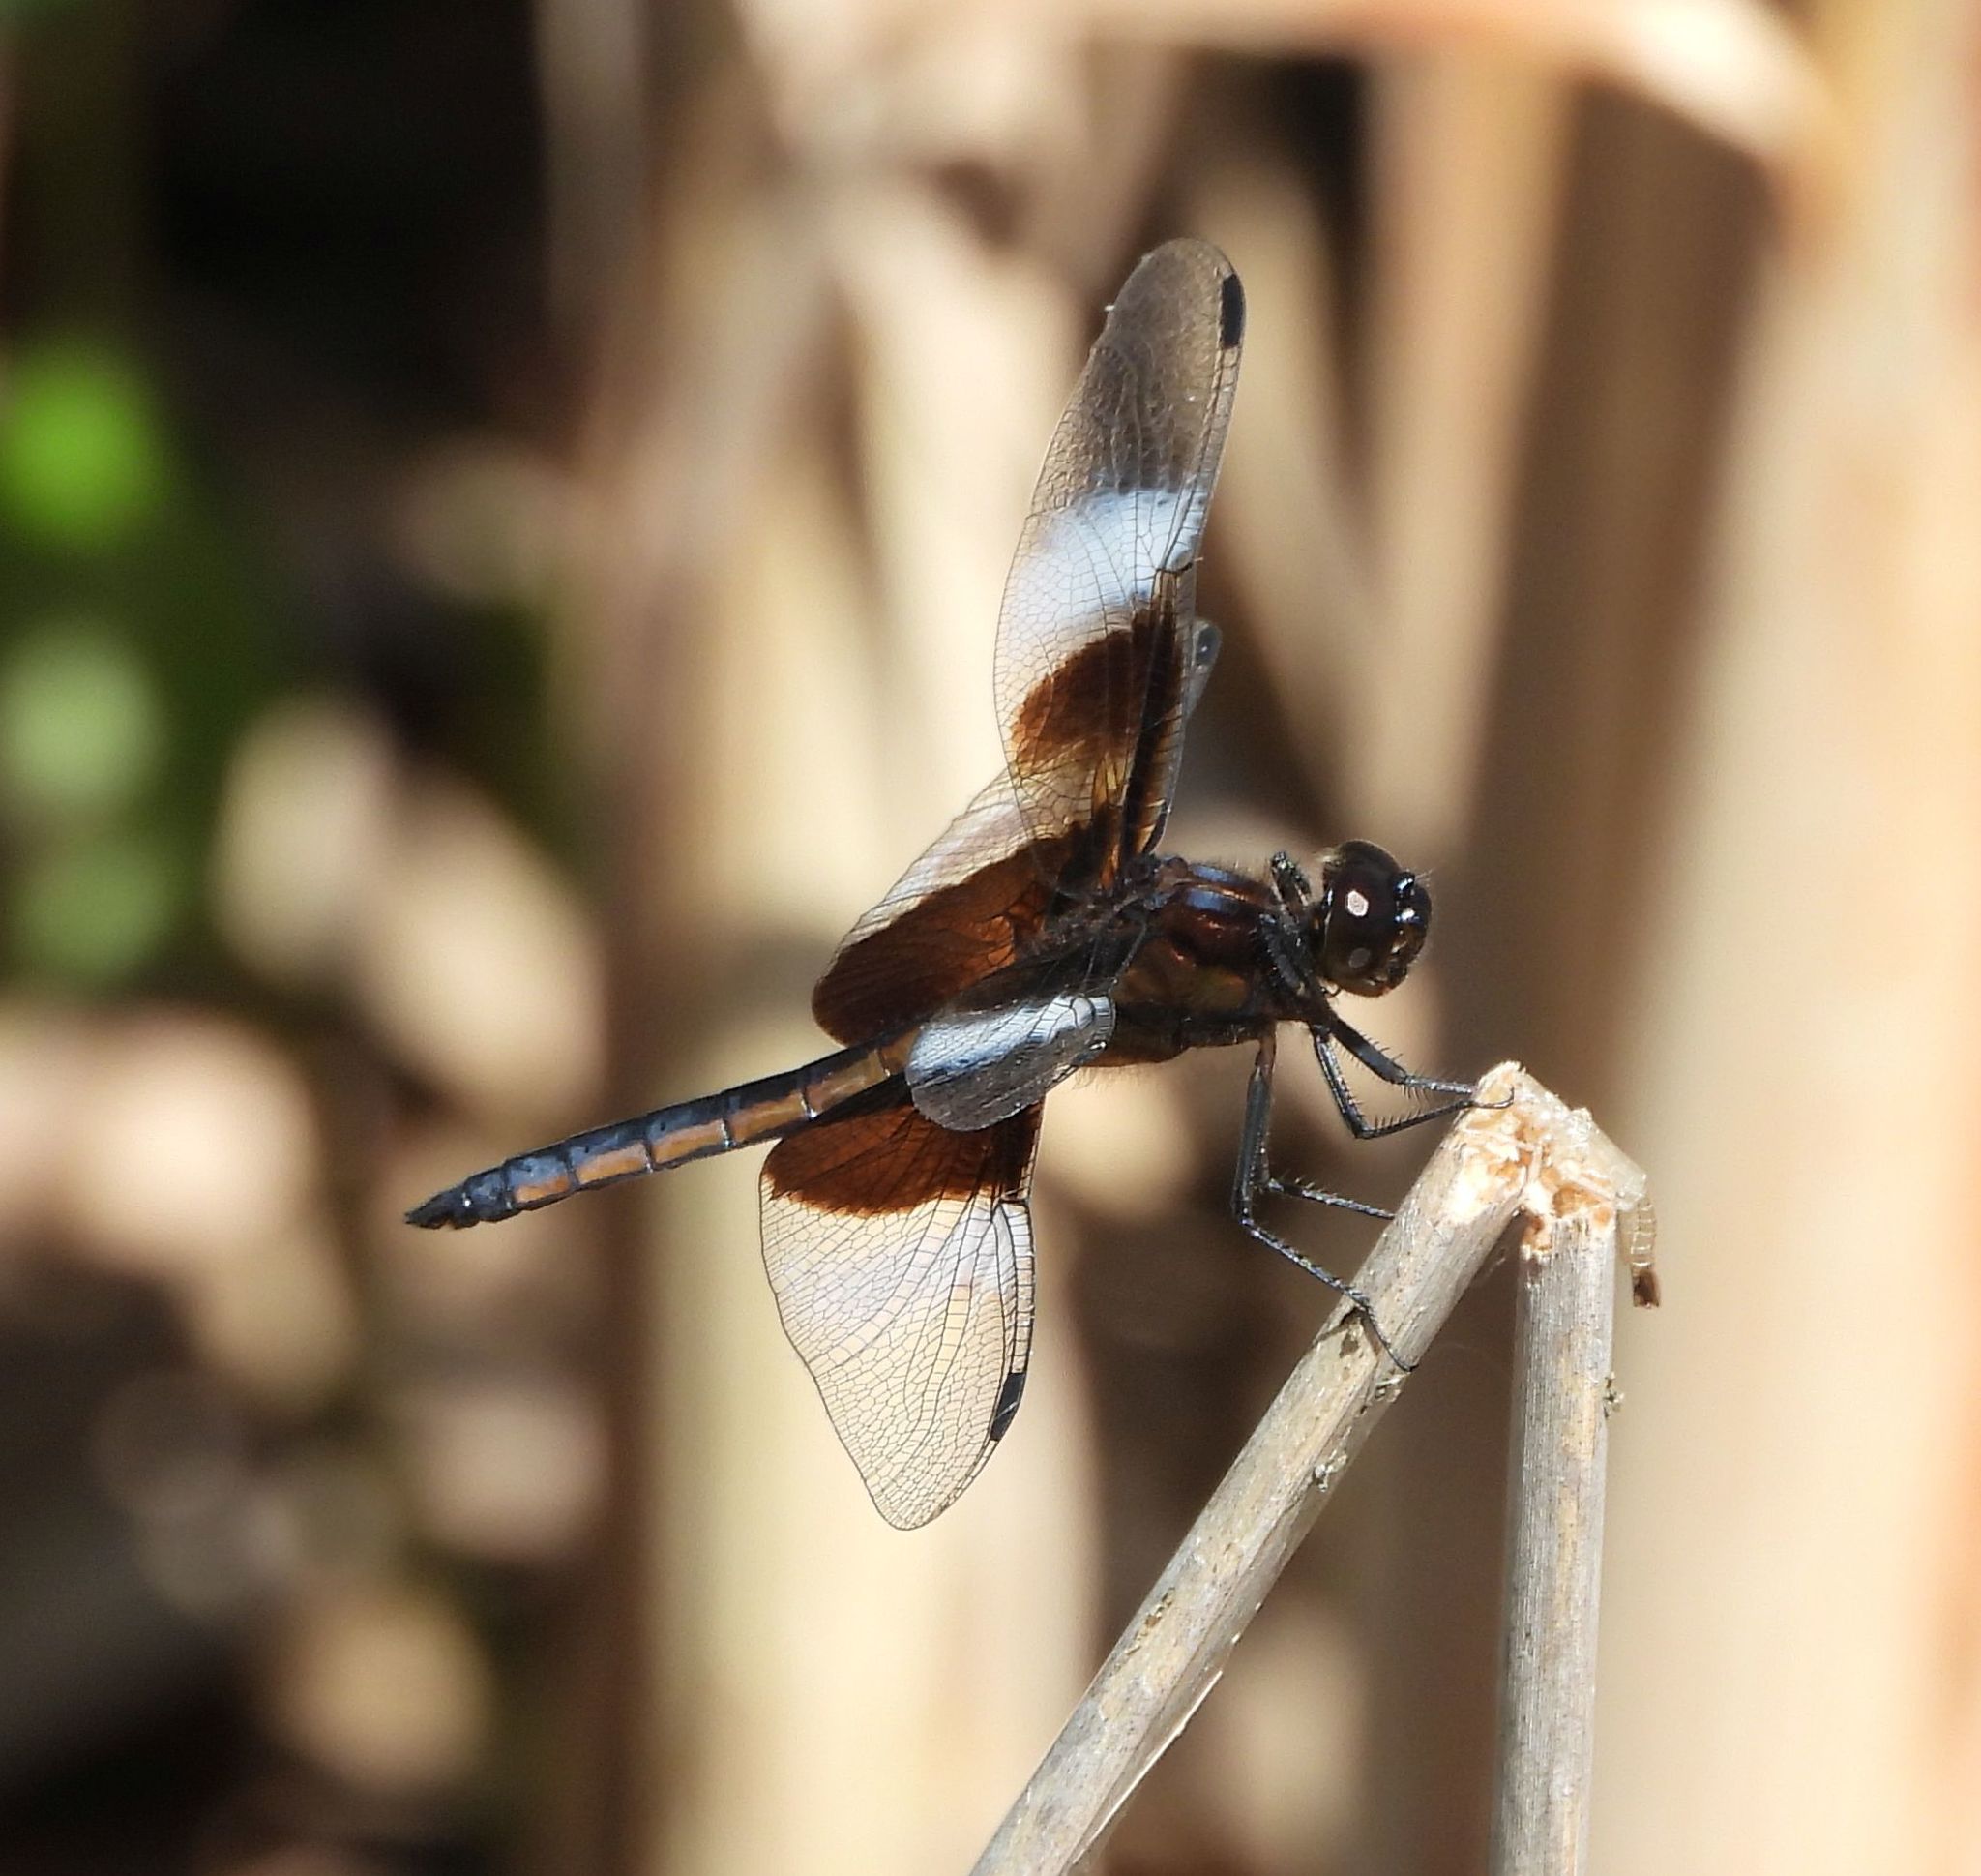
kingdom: Animalia
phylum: Arthropoda
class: Insecta
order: Odonata
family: Libellulidae
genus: Libellula
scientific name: Libellula luctuosa
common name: Widow skimmer
